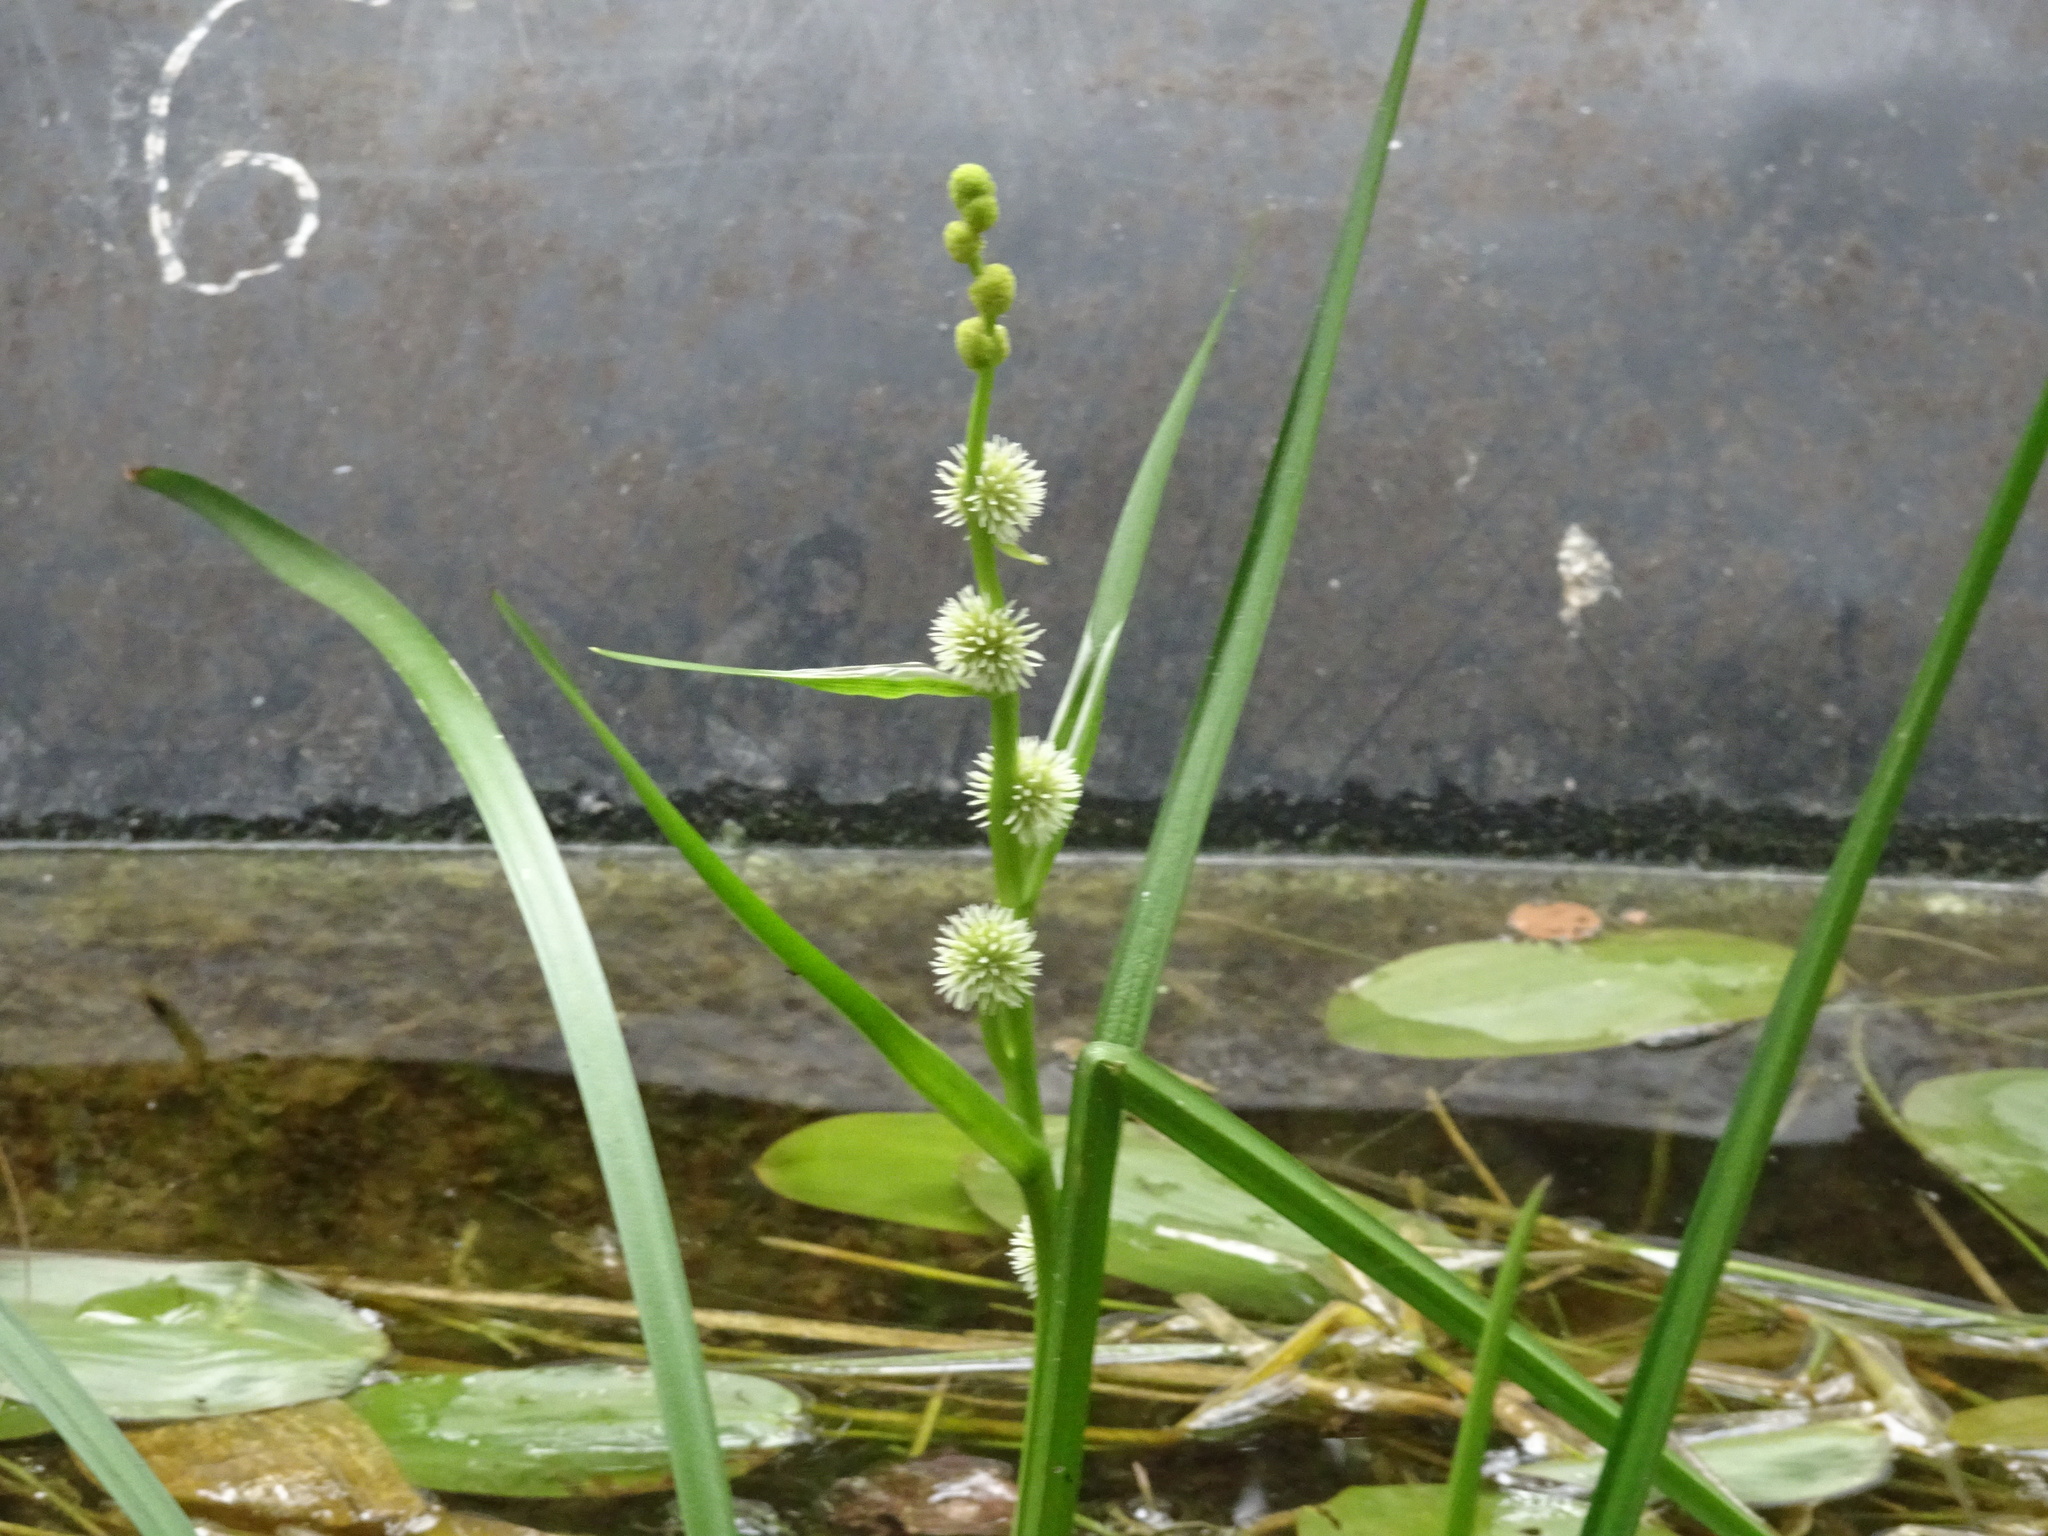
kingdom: Plantae
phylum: Tracheophyta
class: Liliopsida
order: Poales
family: Typhaceae
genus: Sparganium
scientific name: Sparganium emersum
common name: Unbranched bur-reed
